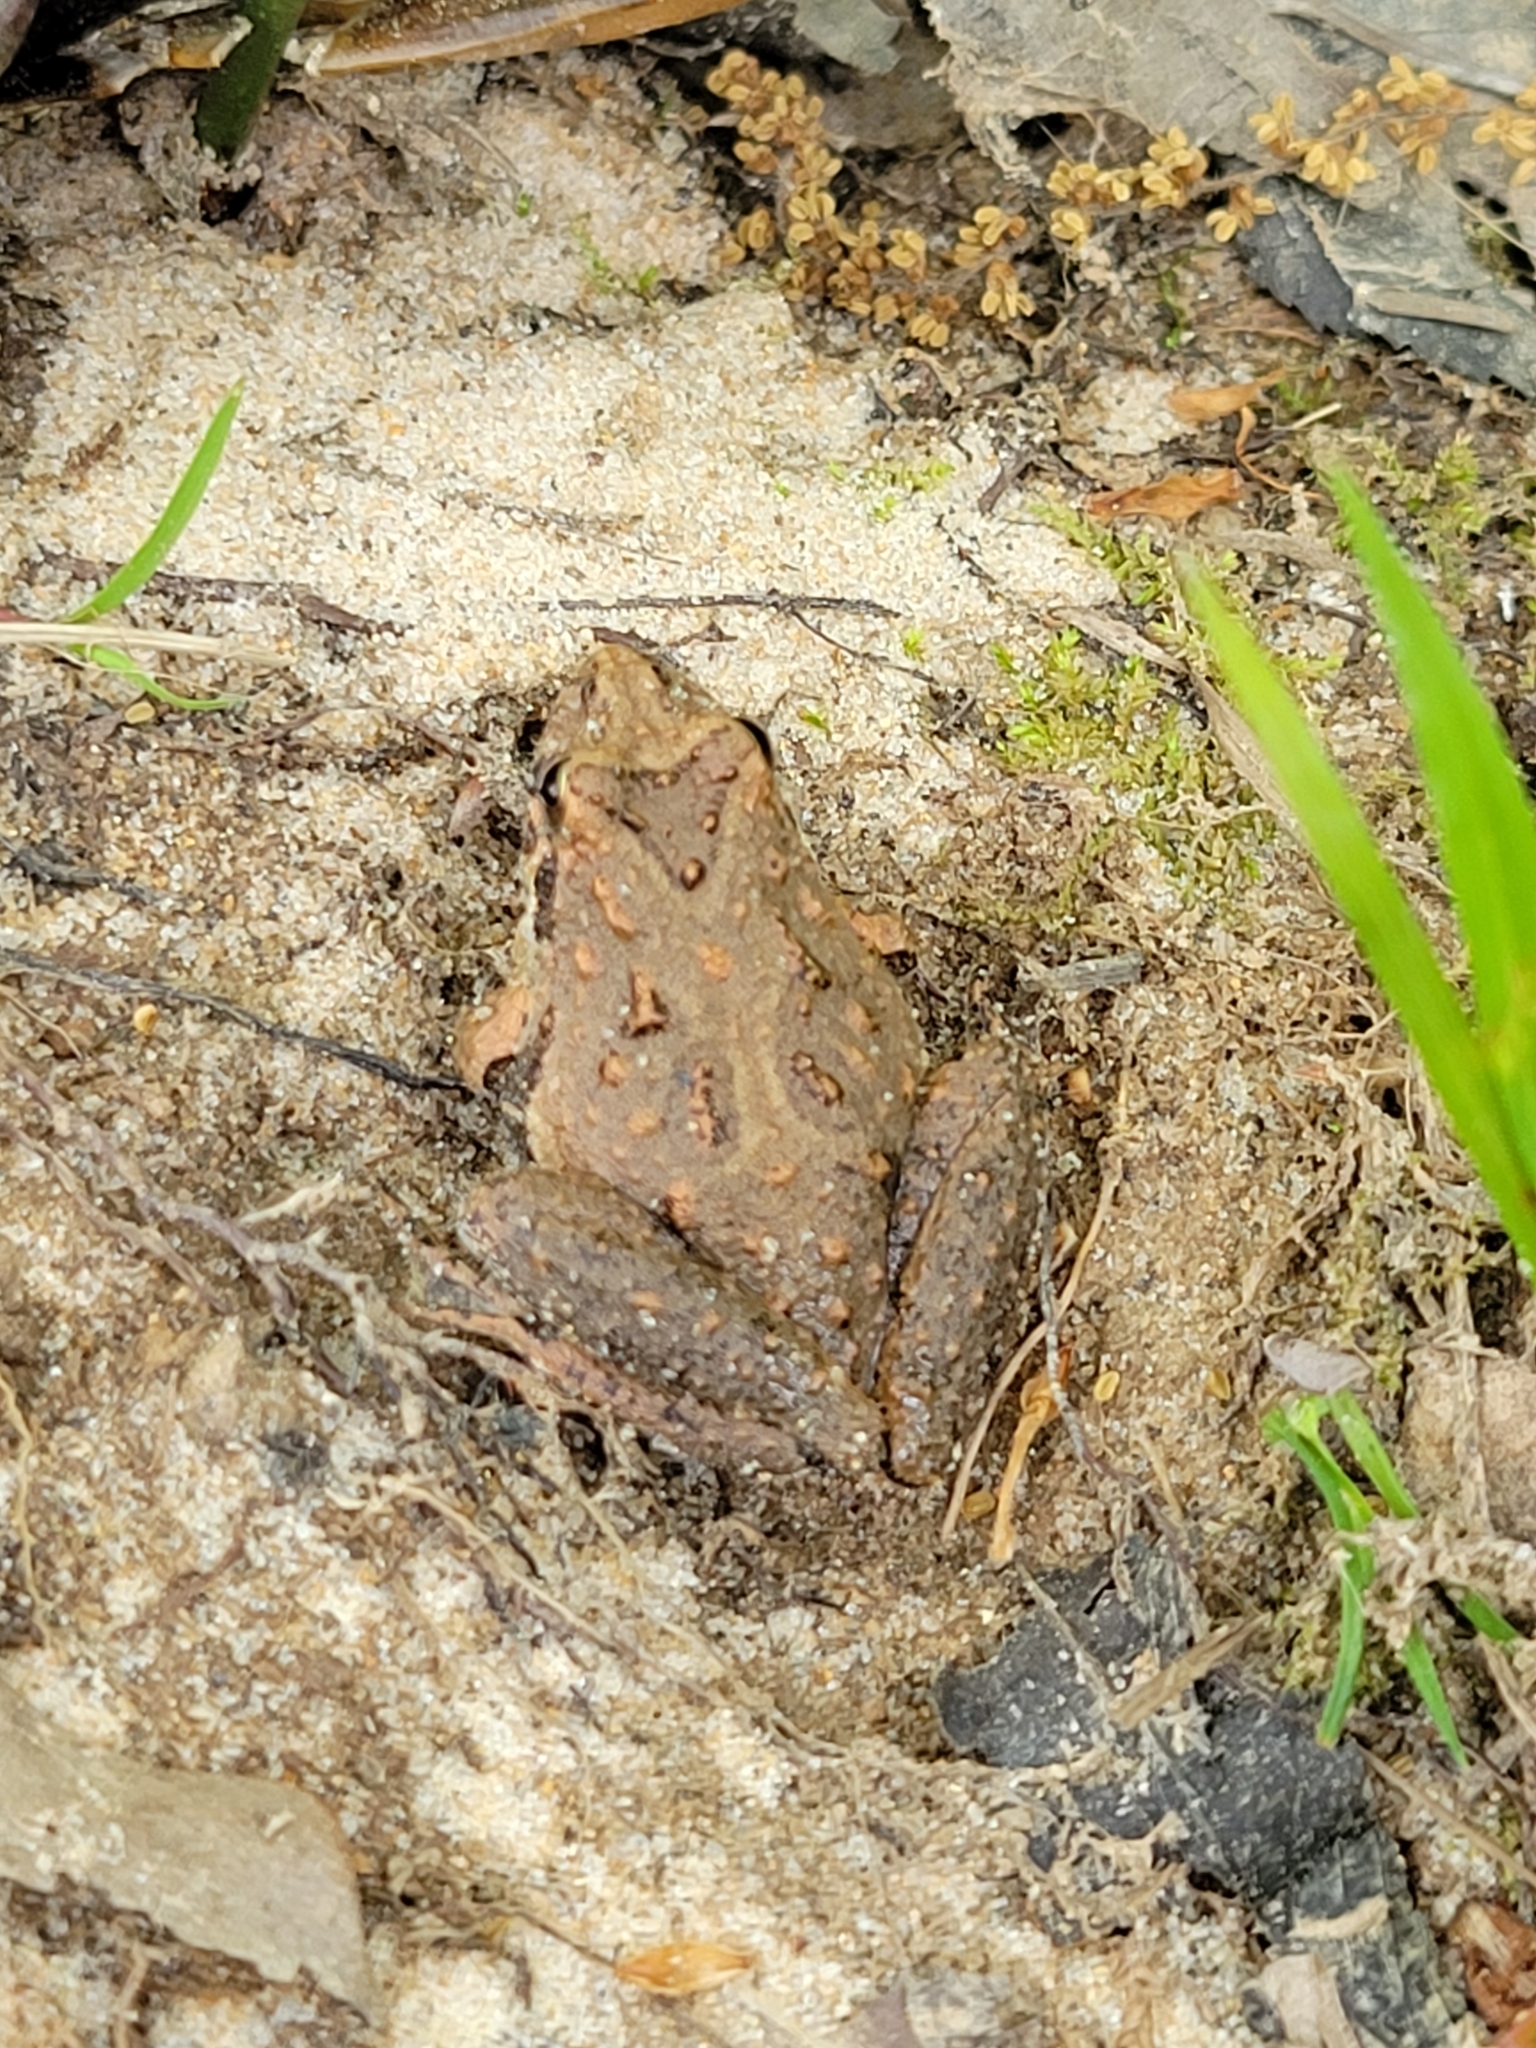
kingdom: Animalia
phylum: Chordata
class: Amphibia
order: Anura
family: Hylidae
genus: Acris
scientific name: Acris gryllus
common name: Southern cricket frog
